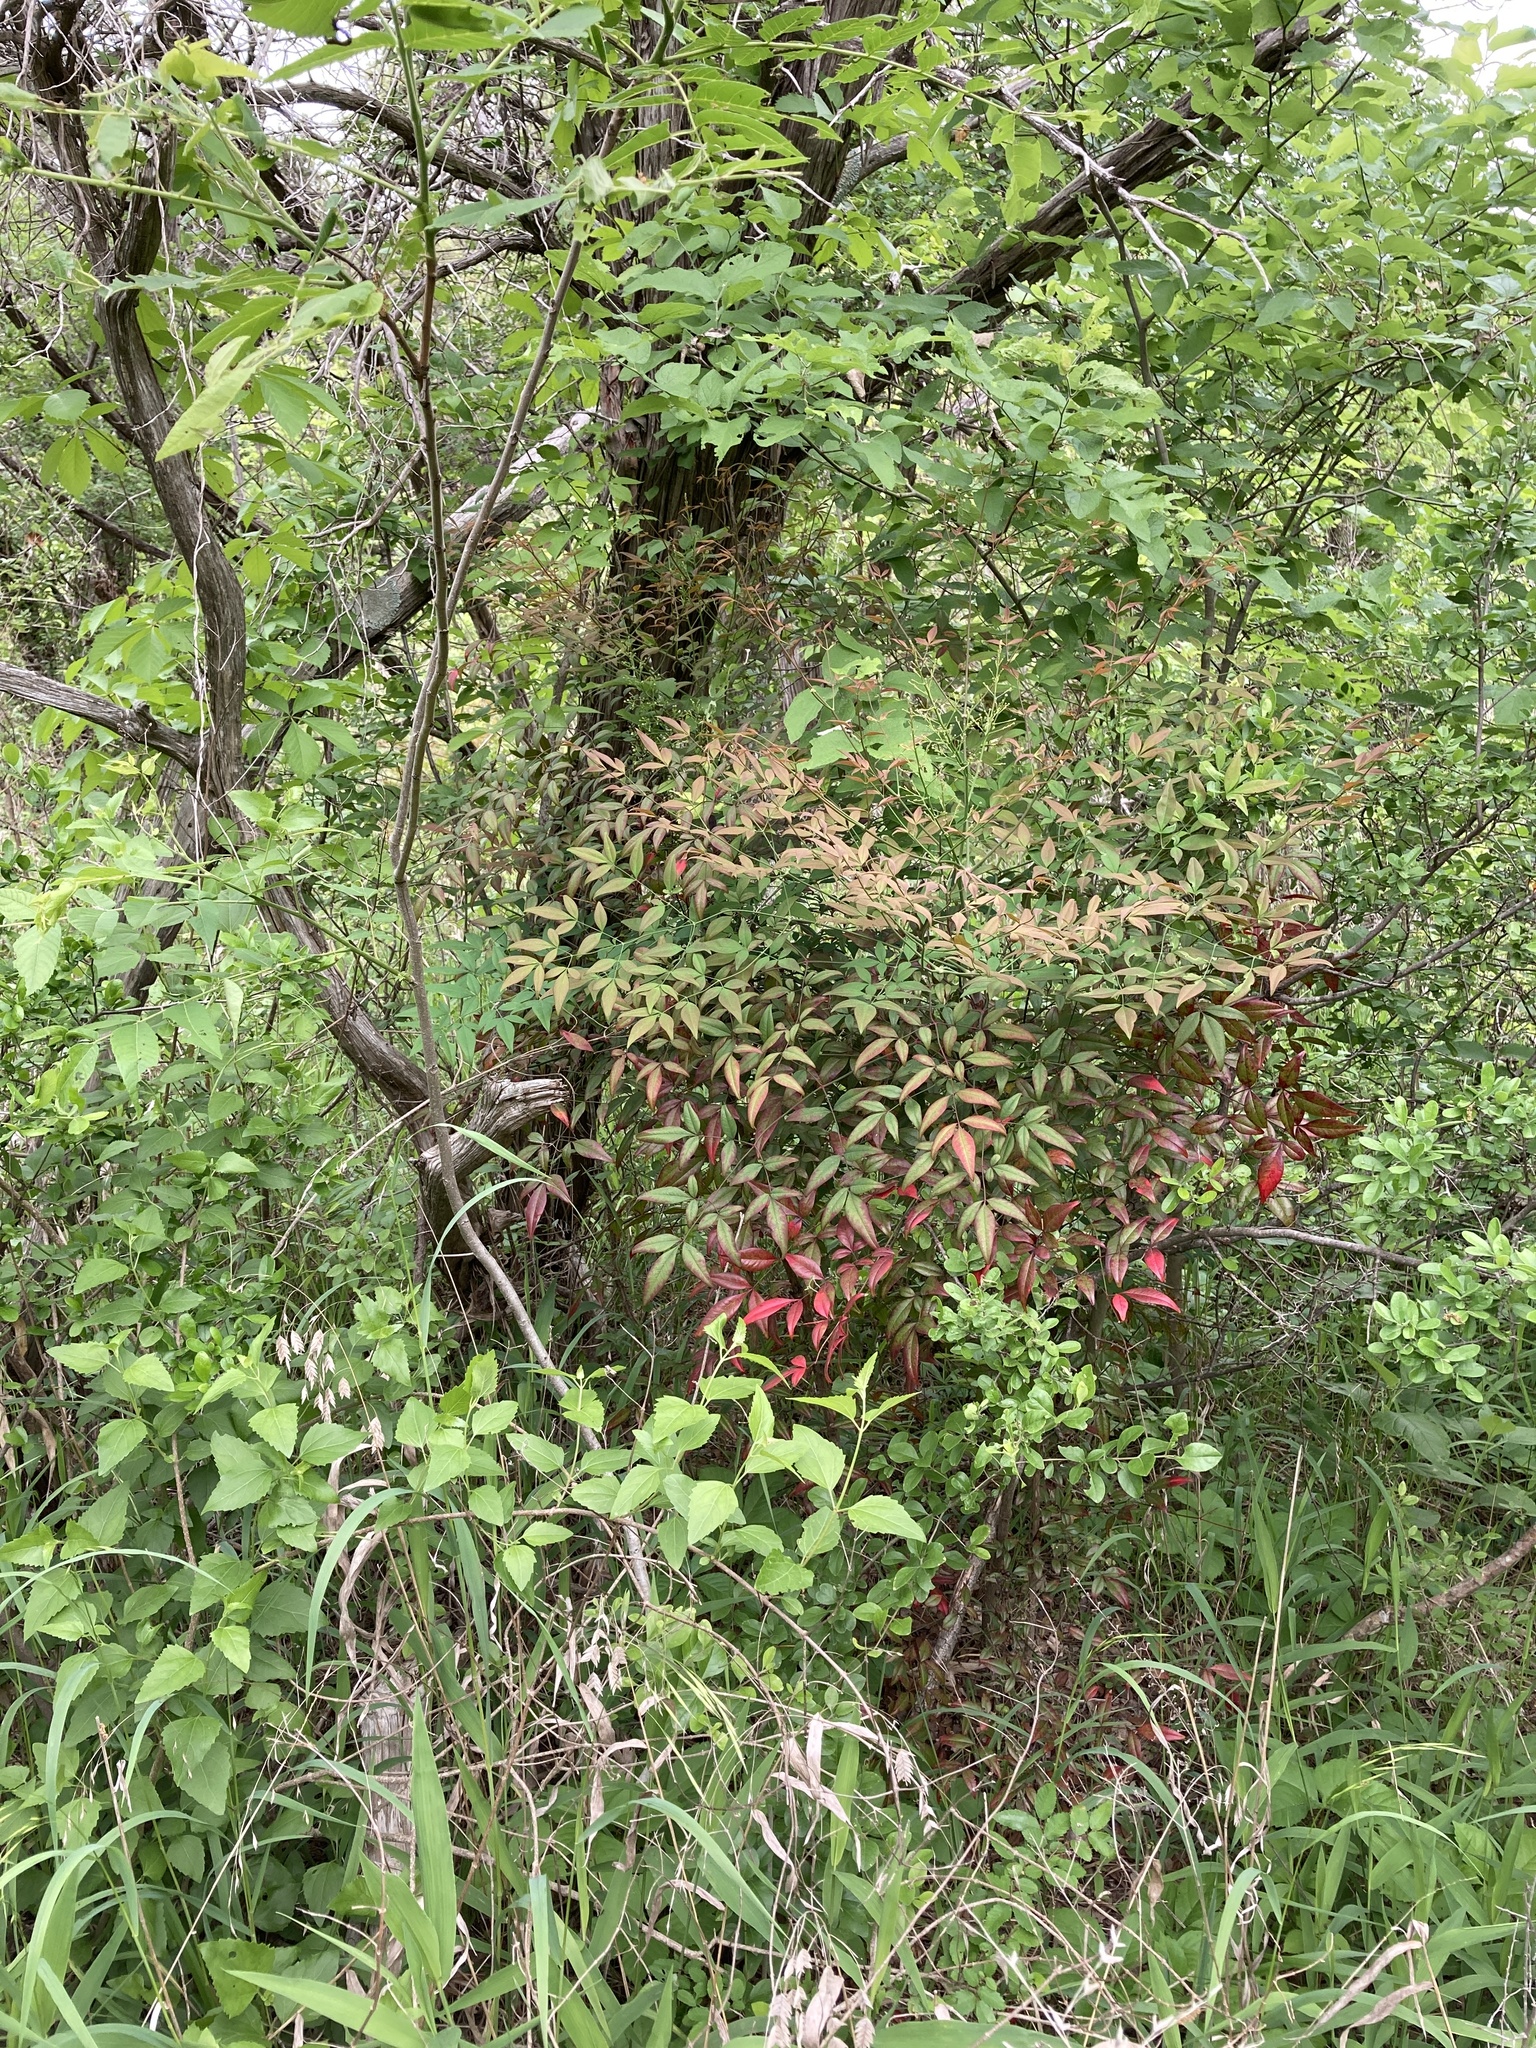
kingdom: Plantae
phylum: Tracheophyta
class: Magnoliopsida
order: Ranunculales
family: Berberidaceae
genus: Nandina
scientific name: Nandina domestica
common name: Sacred bamboo
